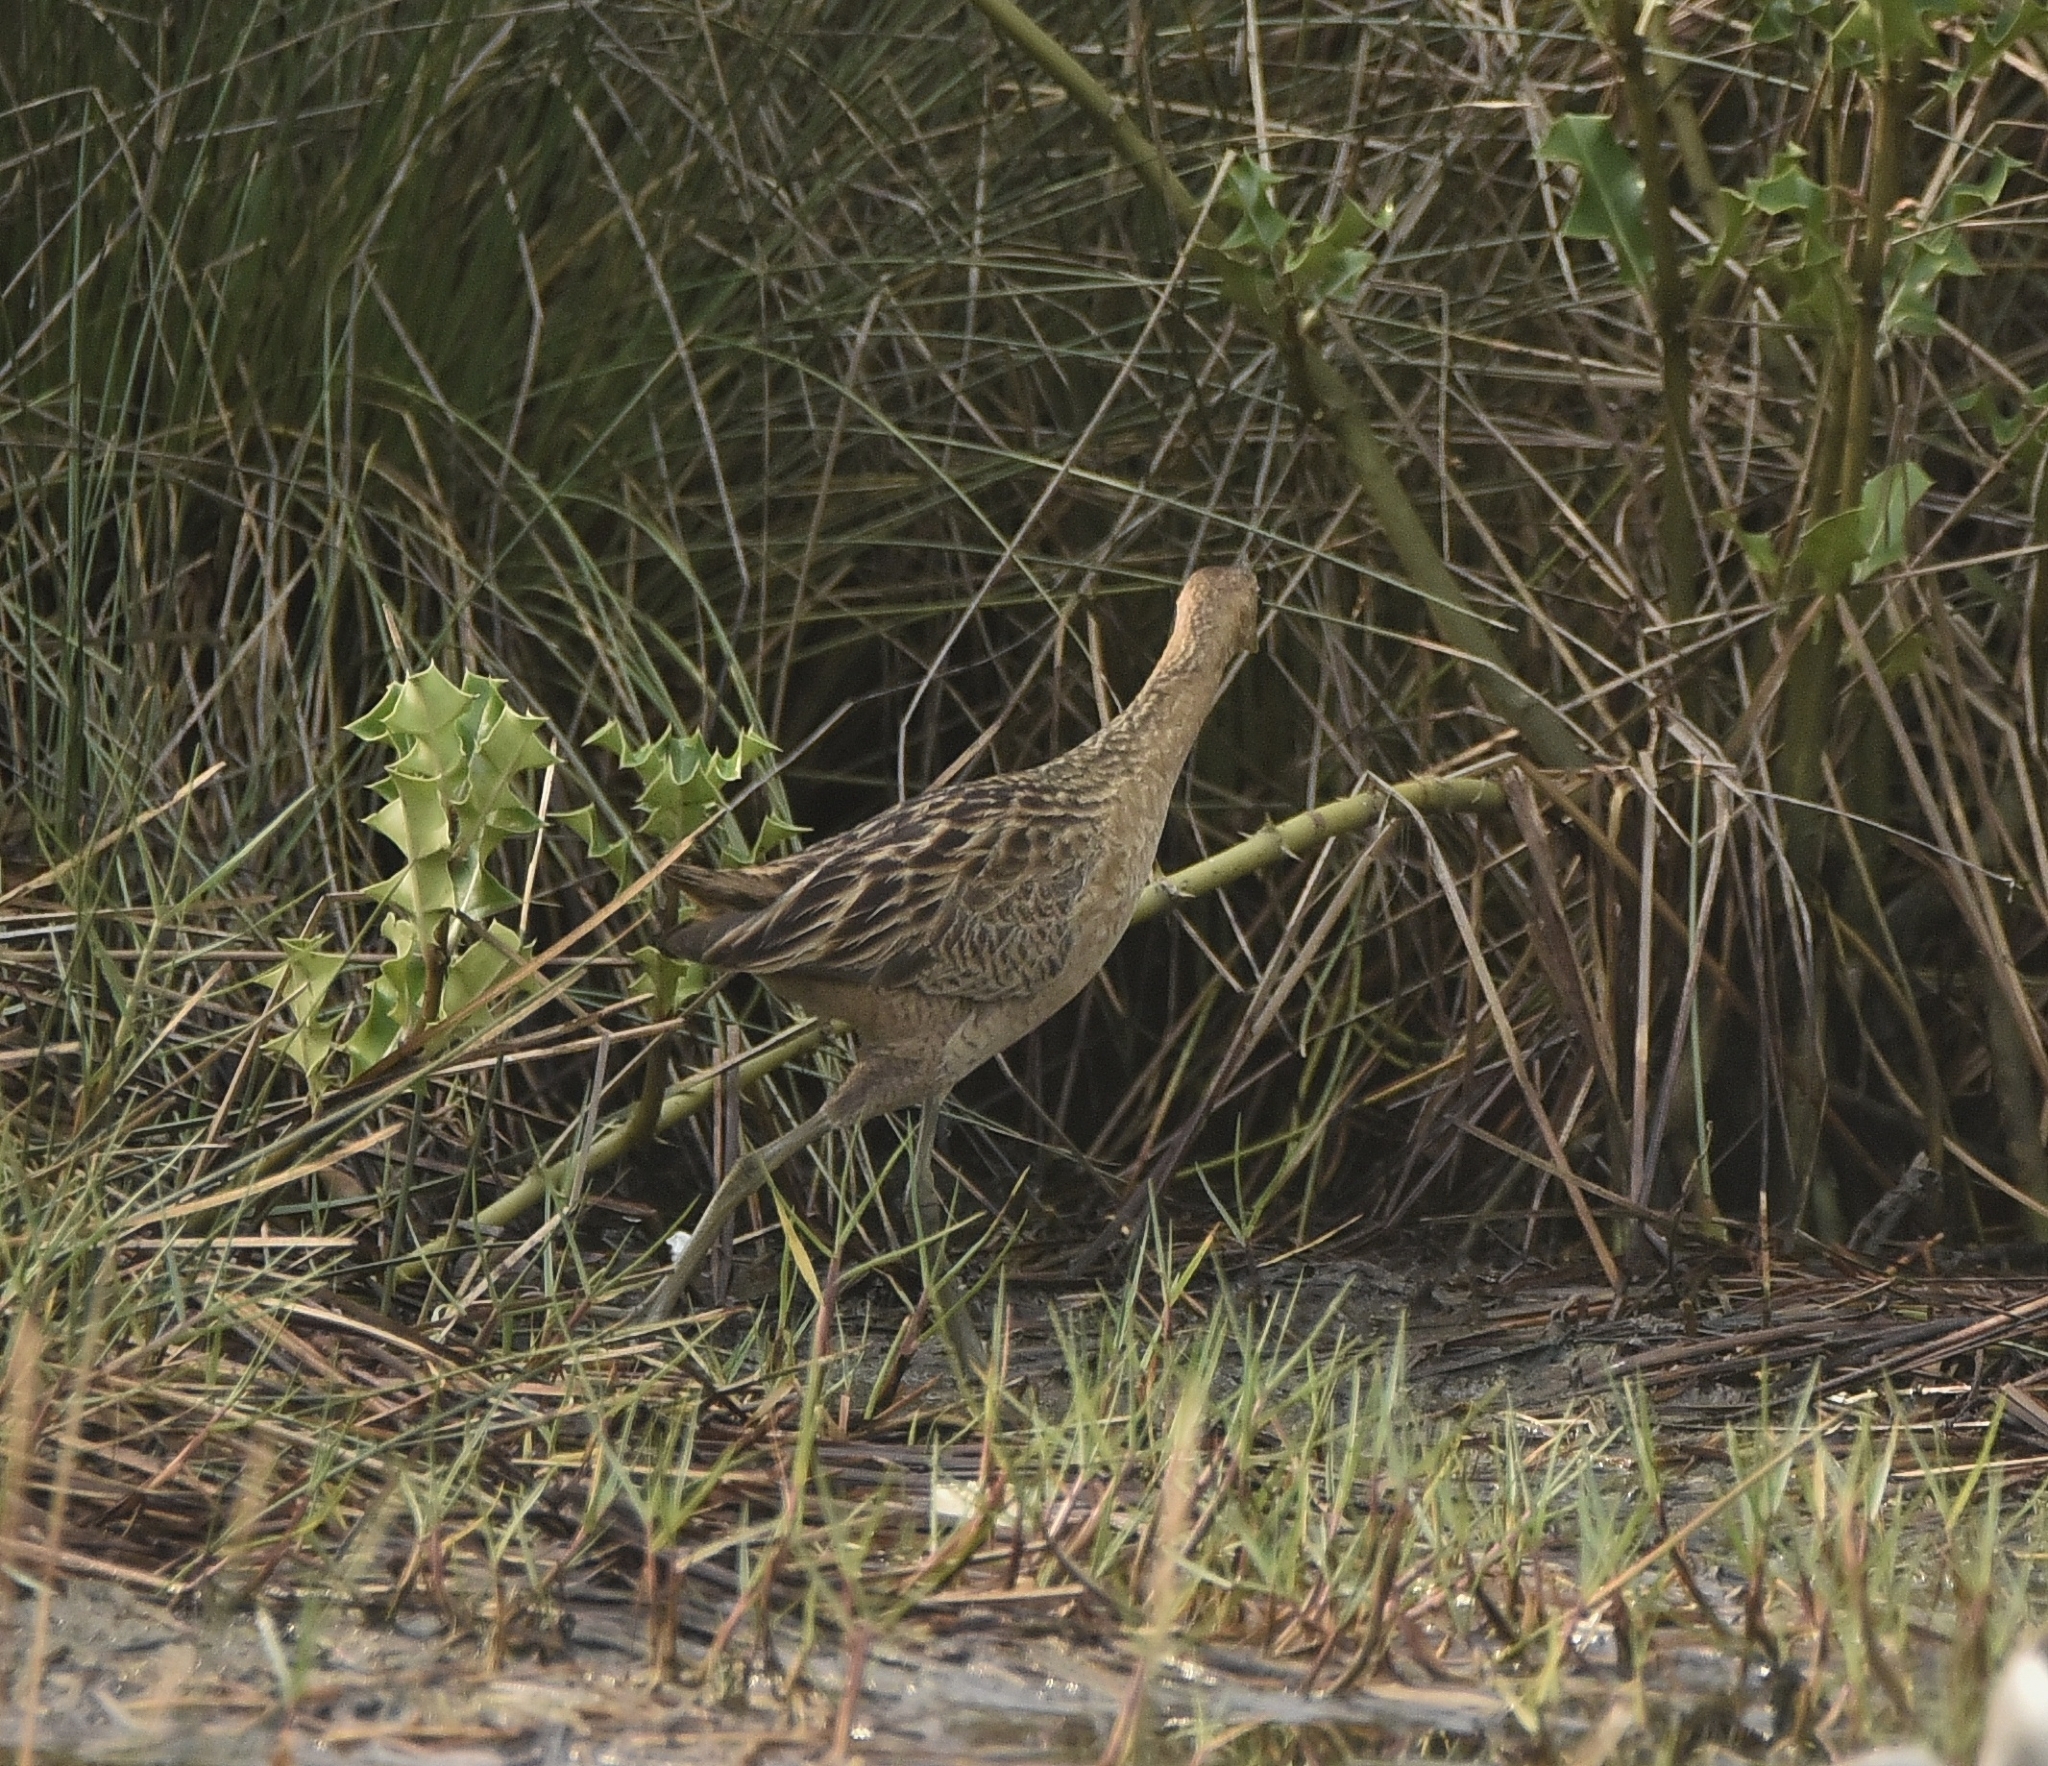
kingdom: Animalia
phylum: Chordata
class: Aves
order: Gruiformes
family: Rallidae
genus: Gallicrex
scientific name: Gallicrex cinerea
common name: Watercock
